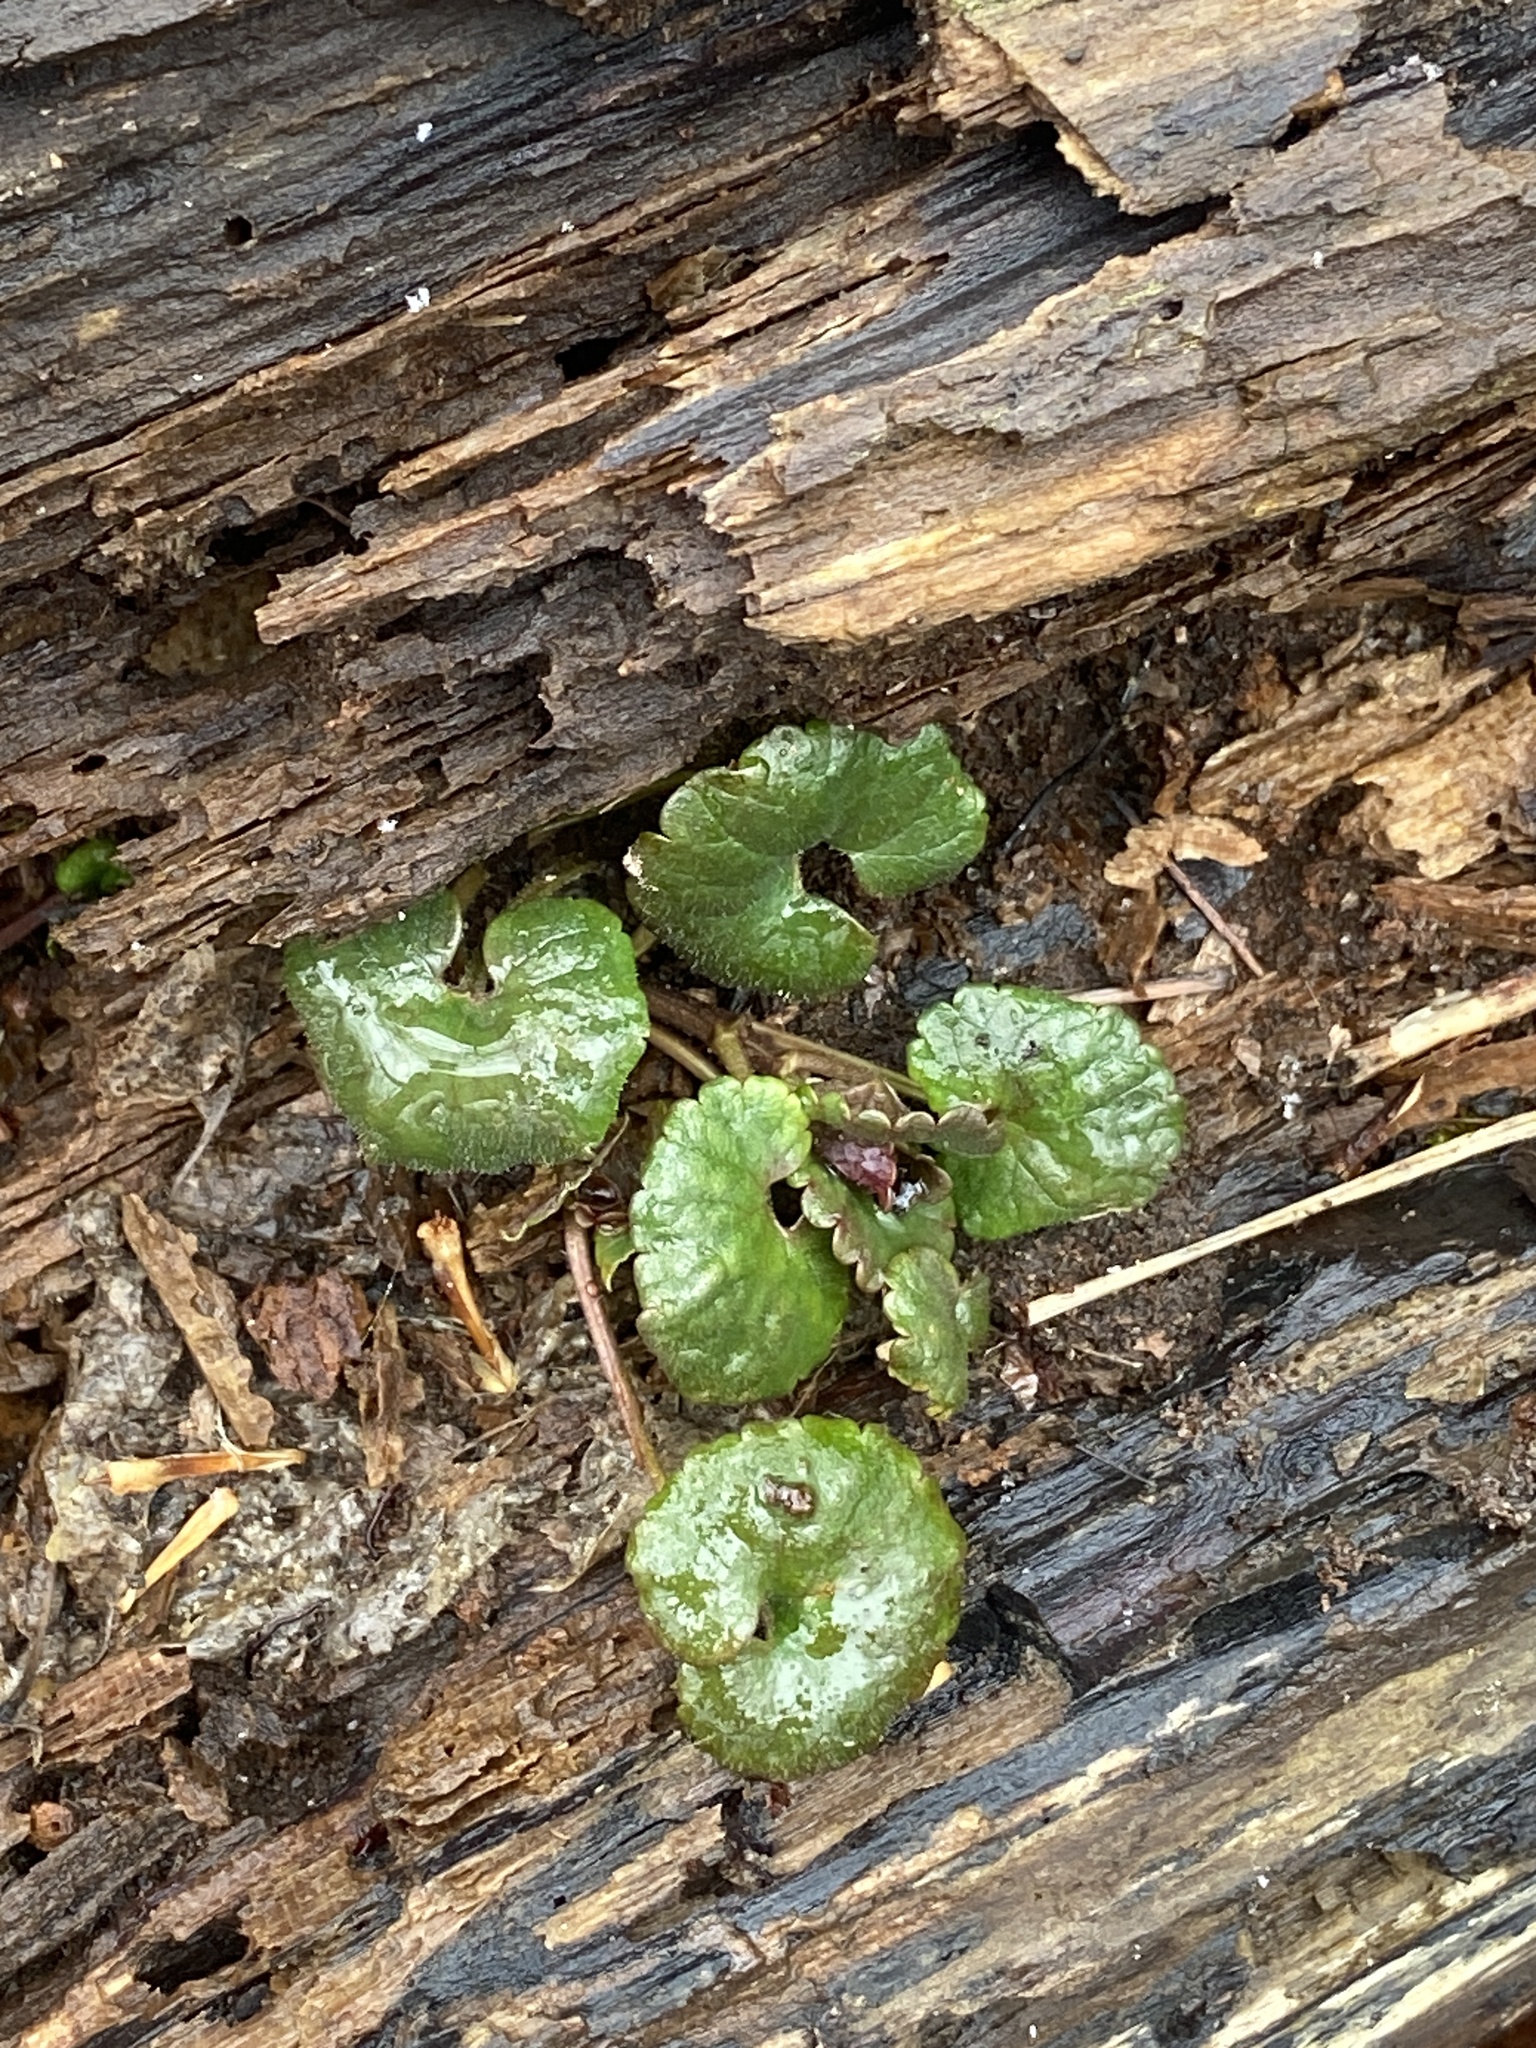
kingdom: Plantae
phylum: Tracheophyta
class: Magnoliopsida
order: Lamiales
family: Lamiaceae
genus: Glechoma
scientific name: Glechoma hederacea
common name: Ground ivy
